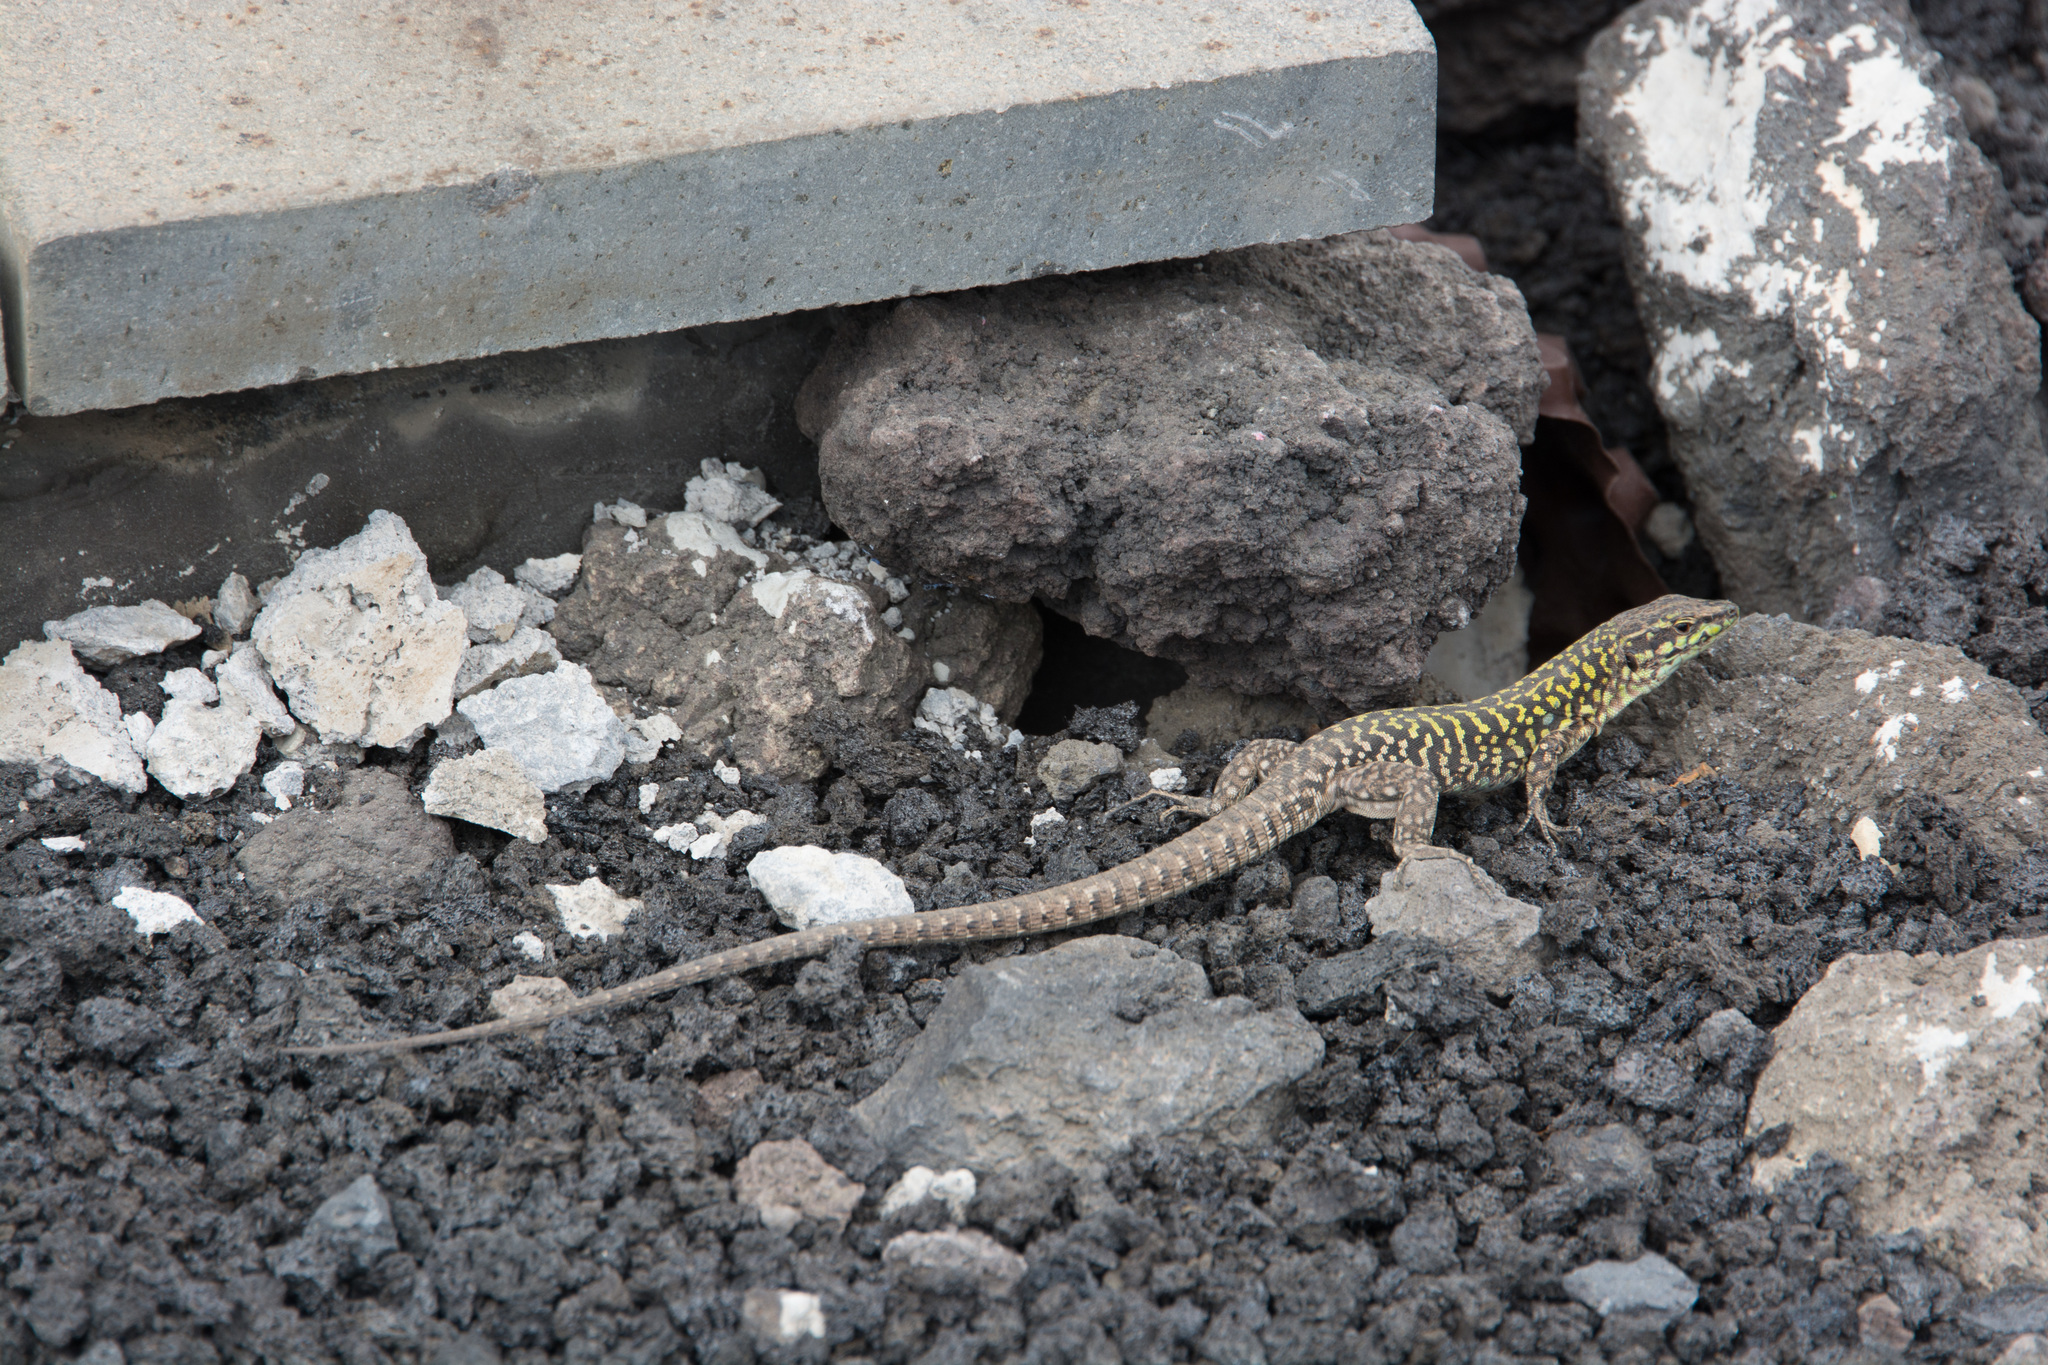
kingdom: Animalia
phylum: Chordata
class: Squamata
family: Lacertidae
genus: Podarcis
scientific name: Podarcis siculus
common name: Italian wall lizard
